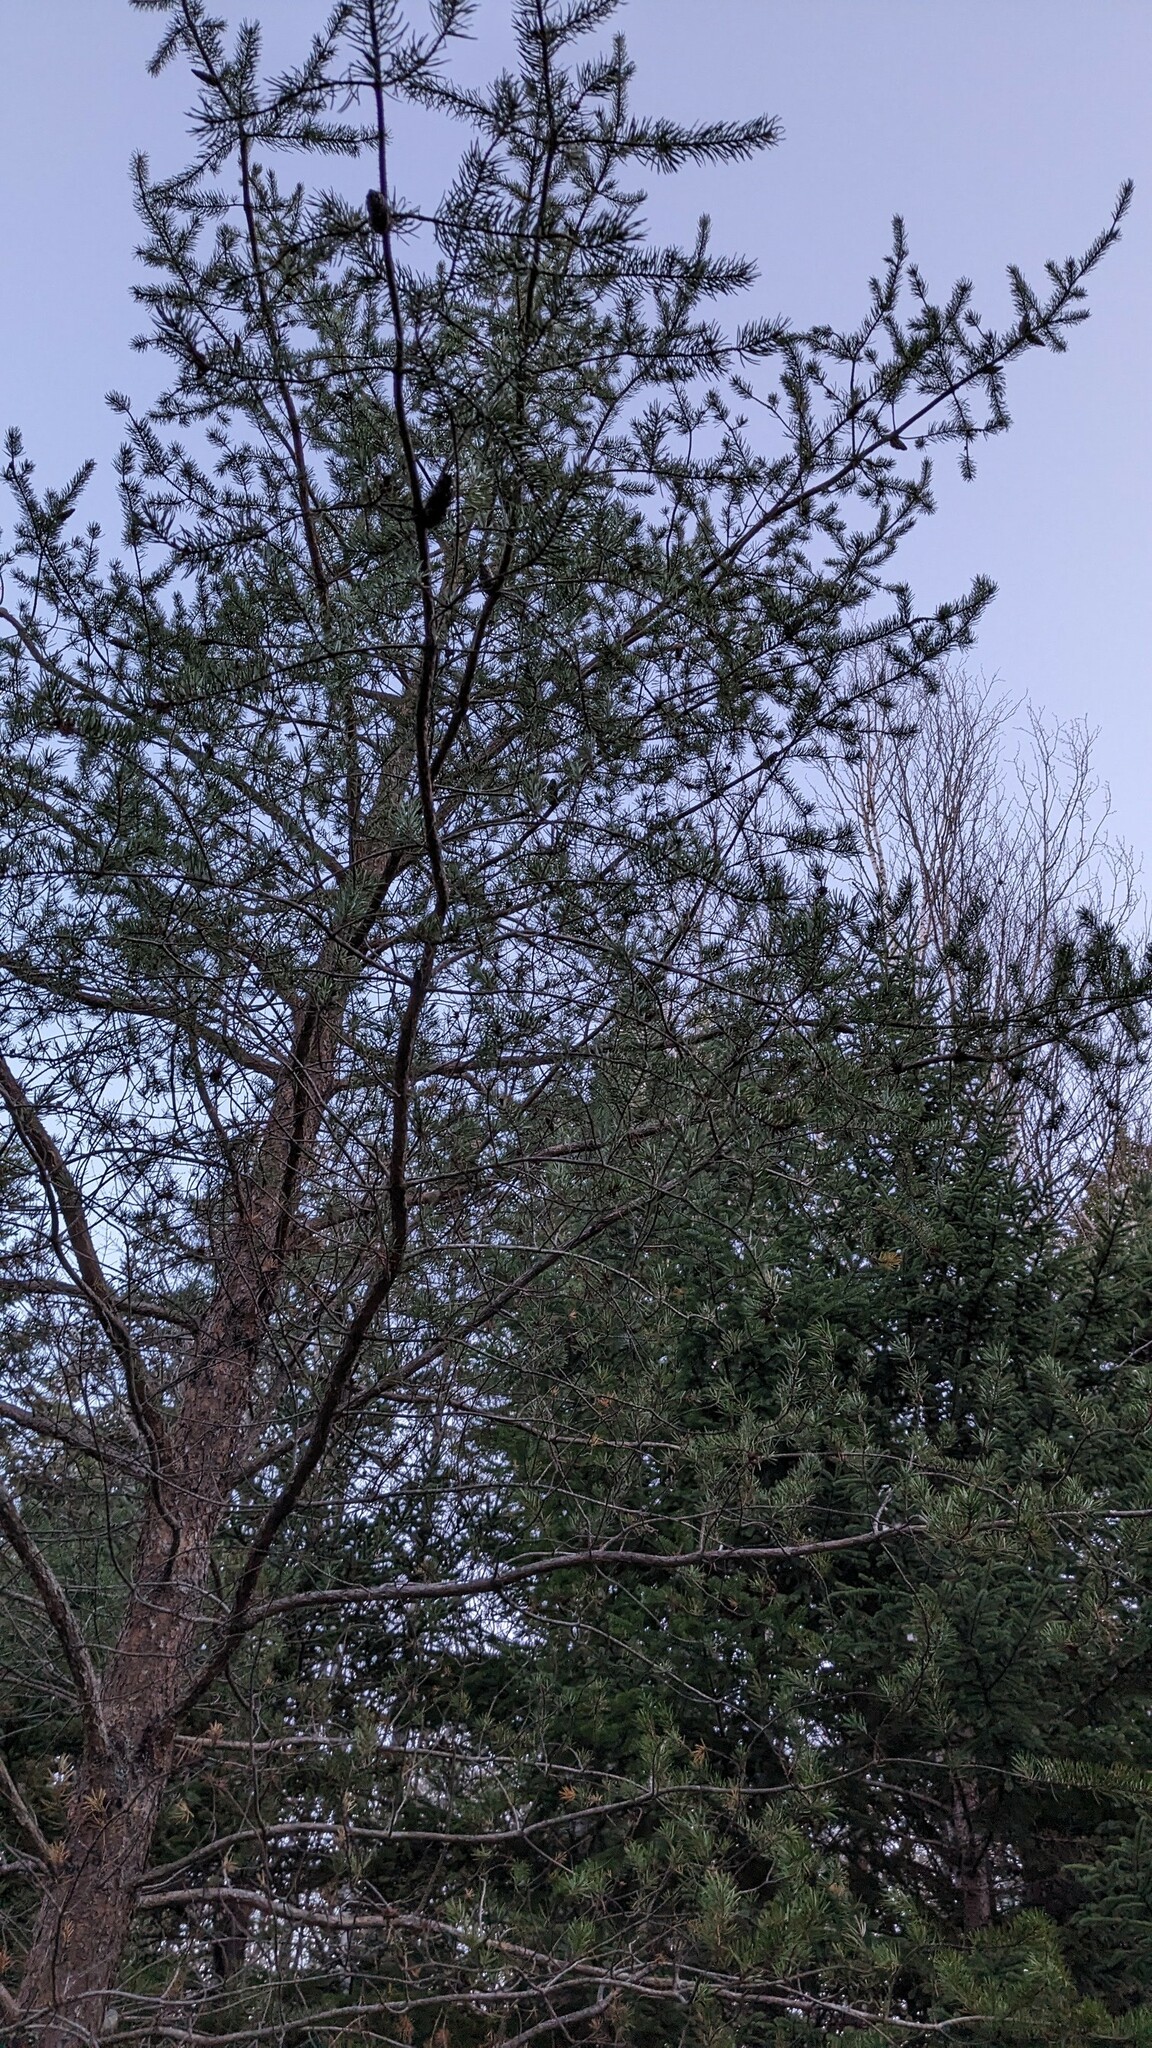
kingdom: Plantae
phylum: Tracheophyta
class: Pinopsida
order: Pinales
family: Pinaceae
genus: Pinus
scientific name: Pinus banksiana
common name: Jack pine
